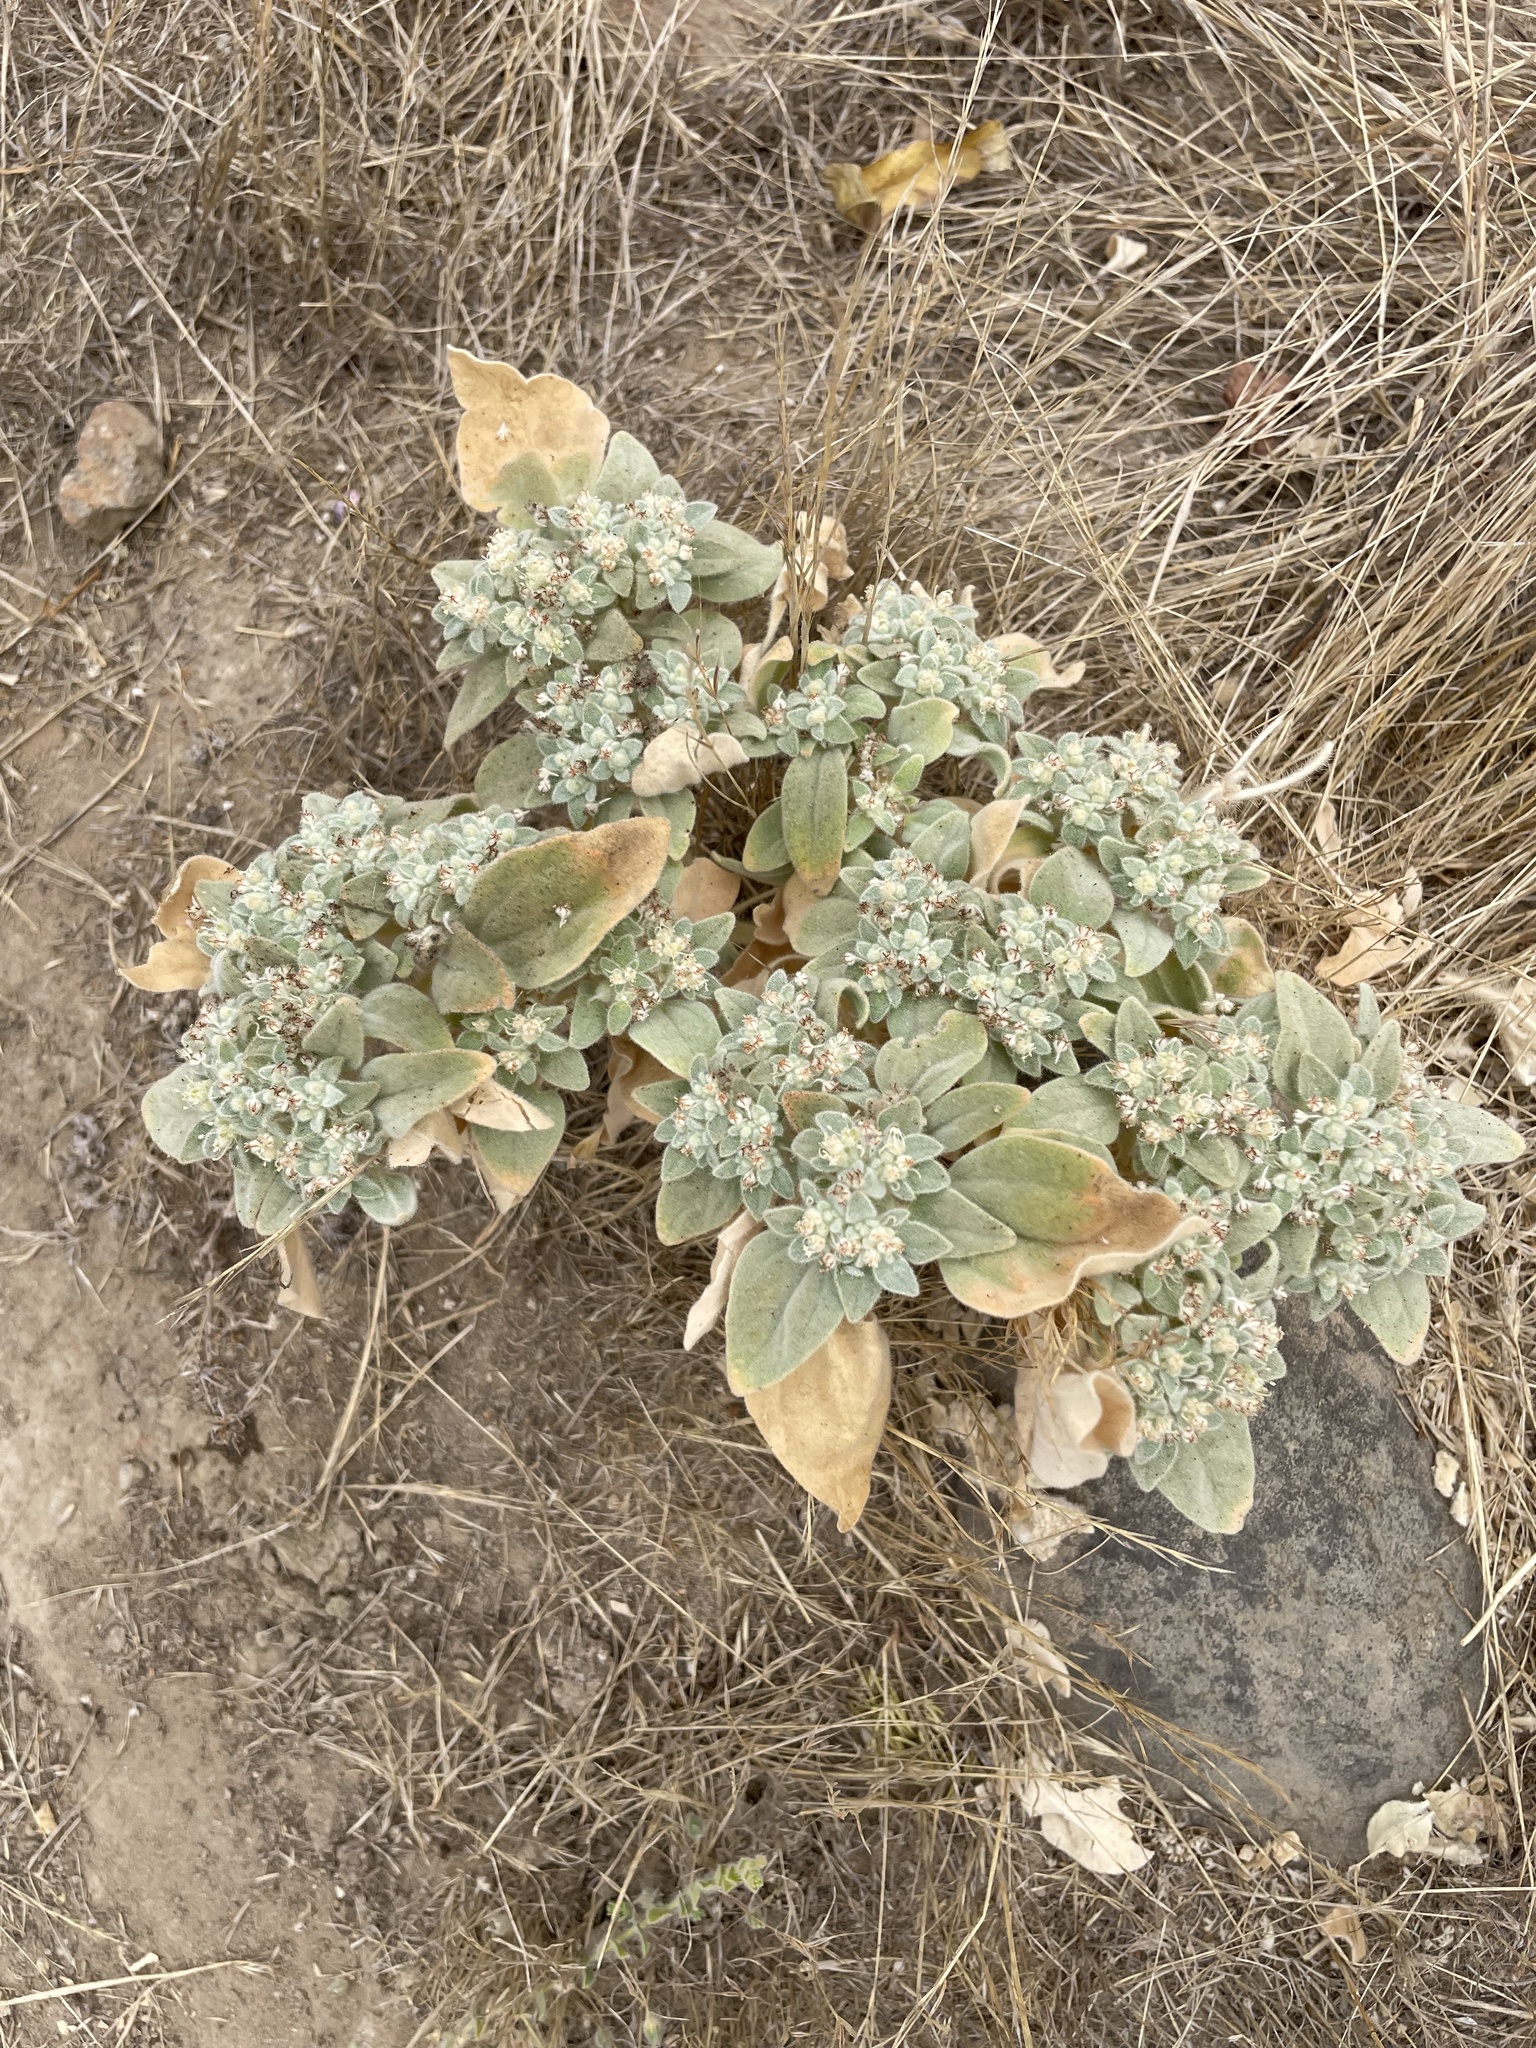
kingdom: Plantae
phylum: Tracheophyta
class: Magnoliopsida
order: Malpighiales
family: Euphorbiaceae
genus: Croton
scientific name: Croton setiger
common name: Dove weed
